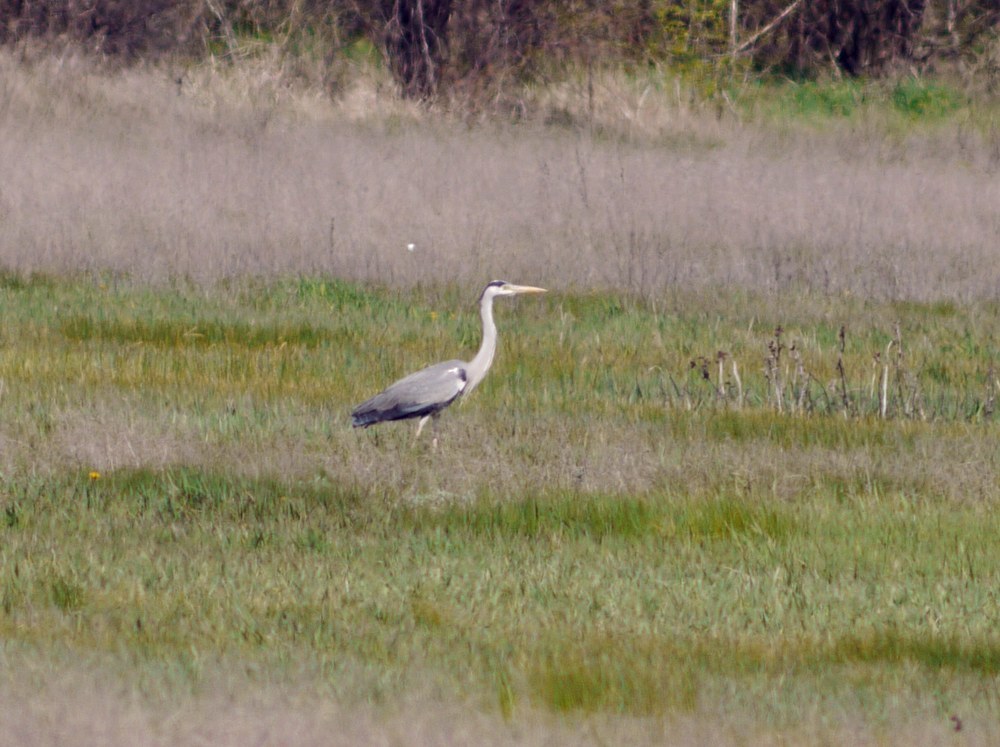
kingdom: Animalia
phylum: Chordata
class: Aves
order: Pelecaniformes
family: Ardeidae
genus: Ardea
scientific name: Ardea cinerea
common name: Grey heron
